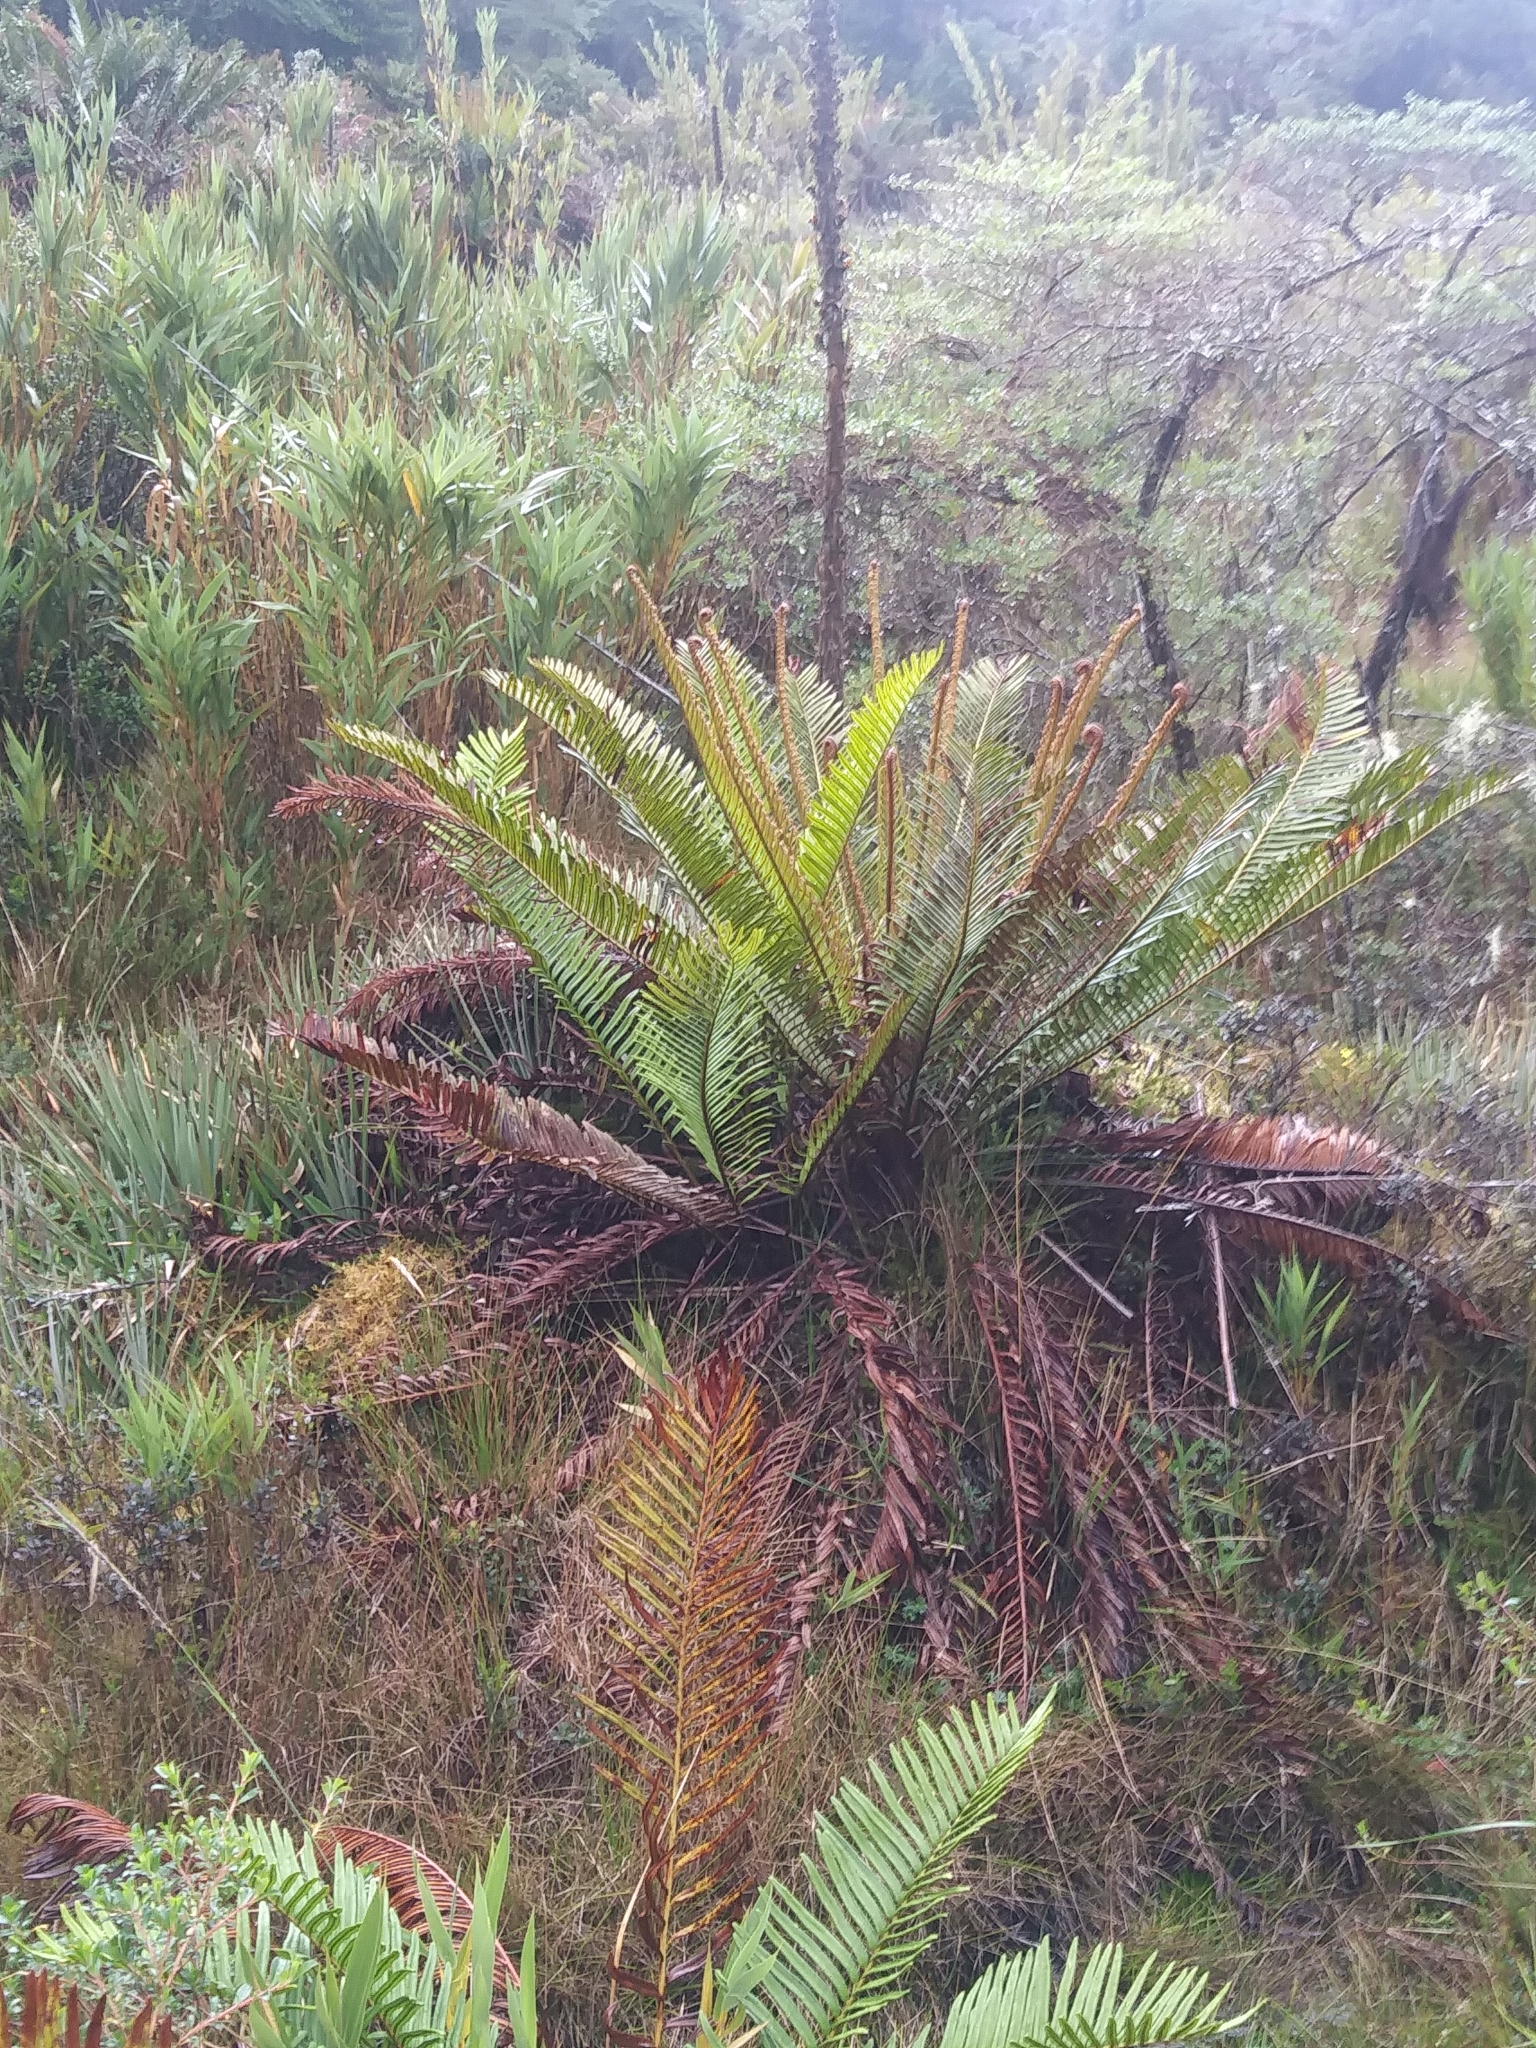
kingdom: Plantae
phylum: Tracheophyta
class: Polypodiopsida
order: Polypodiales
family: Blechnaceae
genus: Lomariocycas
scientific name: Lomariocycas aurata
